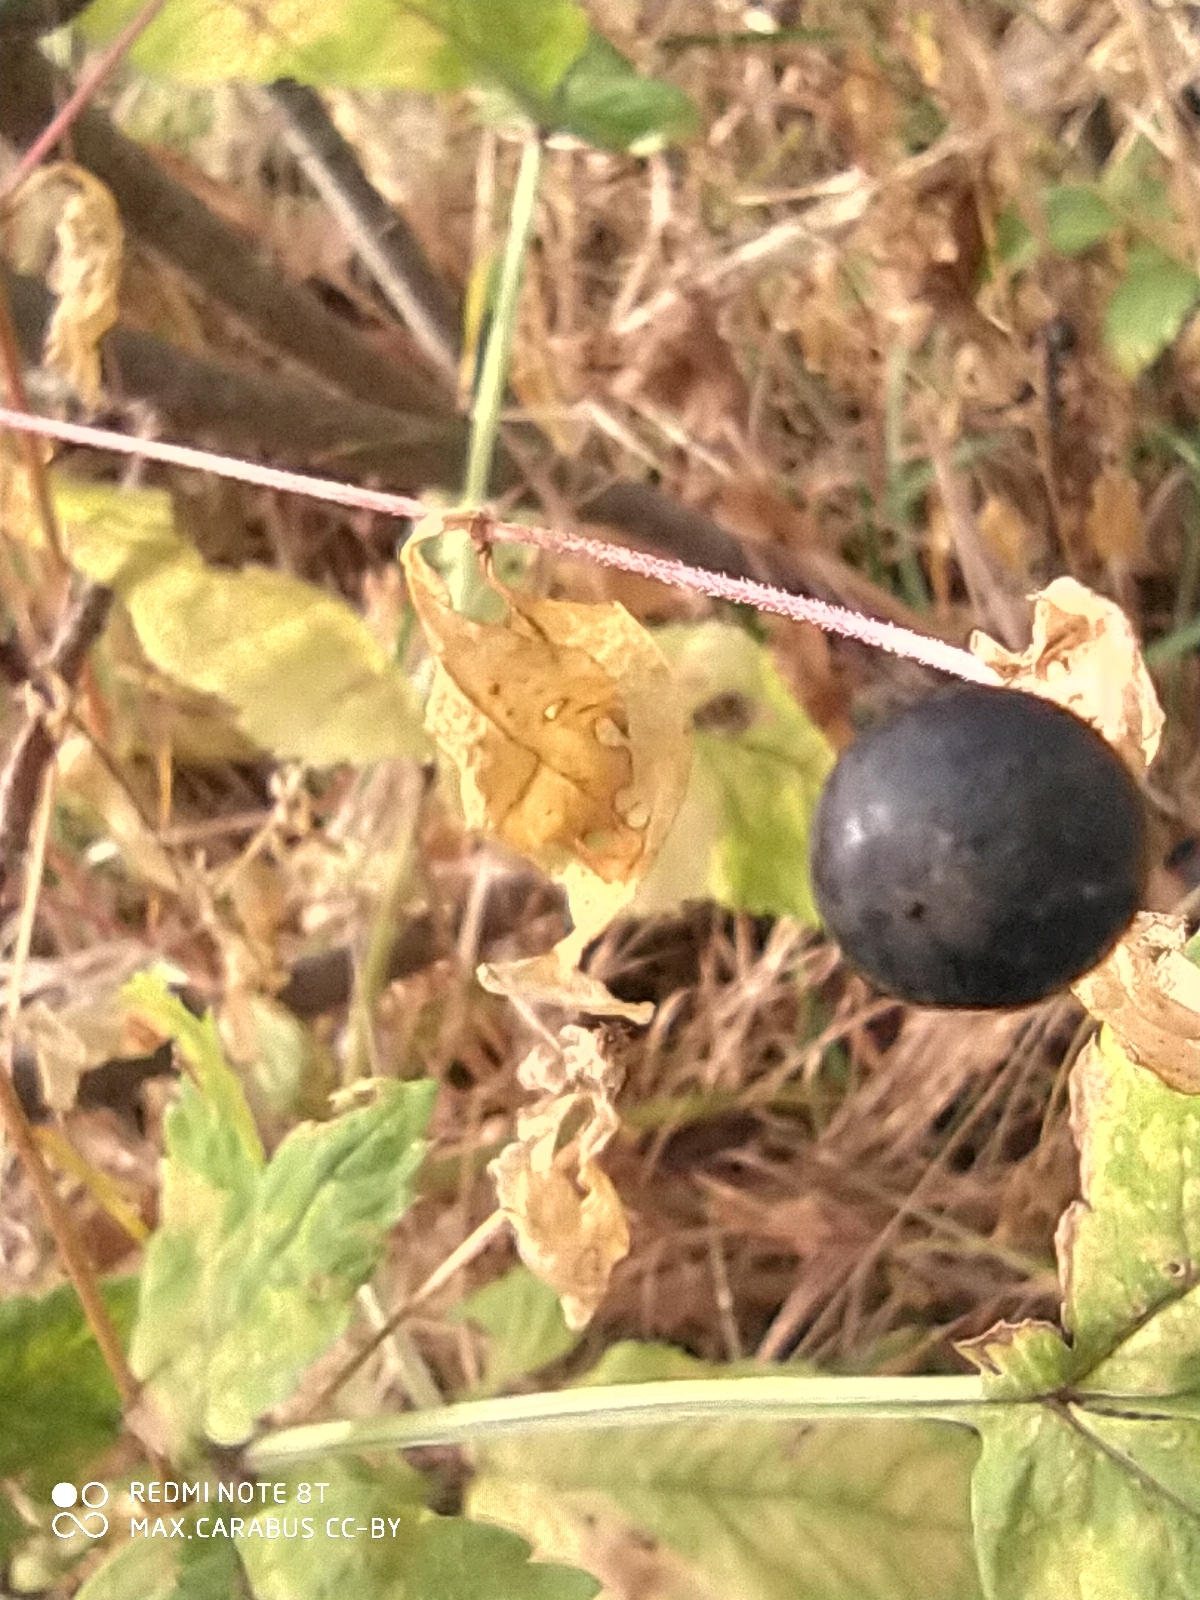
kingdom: Plantae
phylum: Tracheophyta
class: Magnoliopsida
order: Caryophyllales
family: Caryophyllaceae
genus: Silene
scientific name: Silene baccifera
